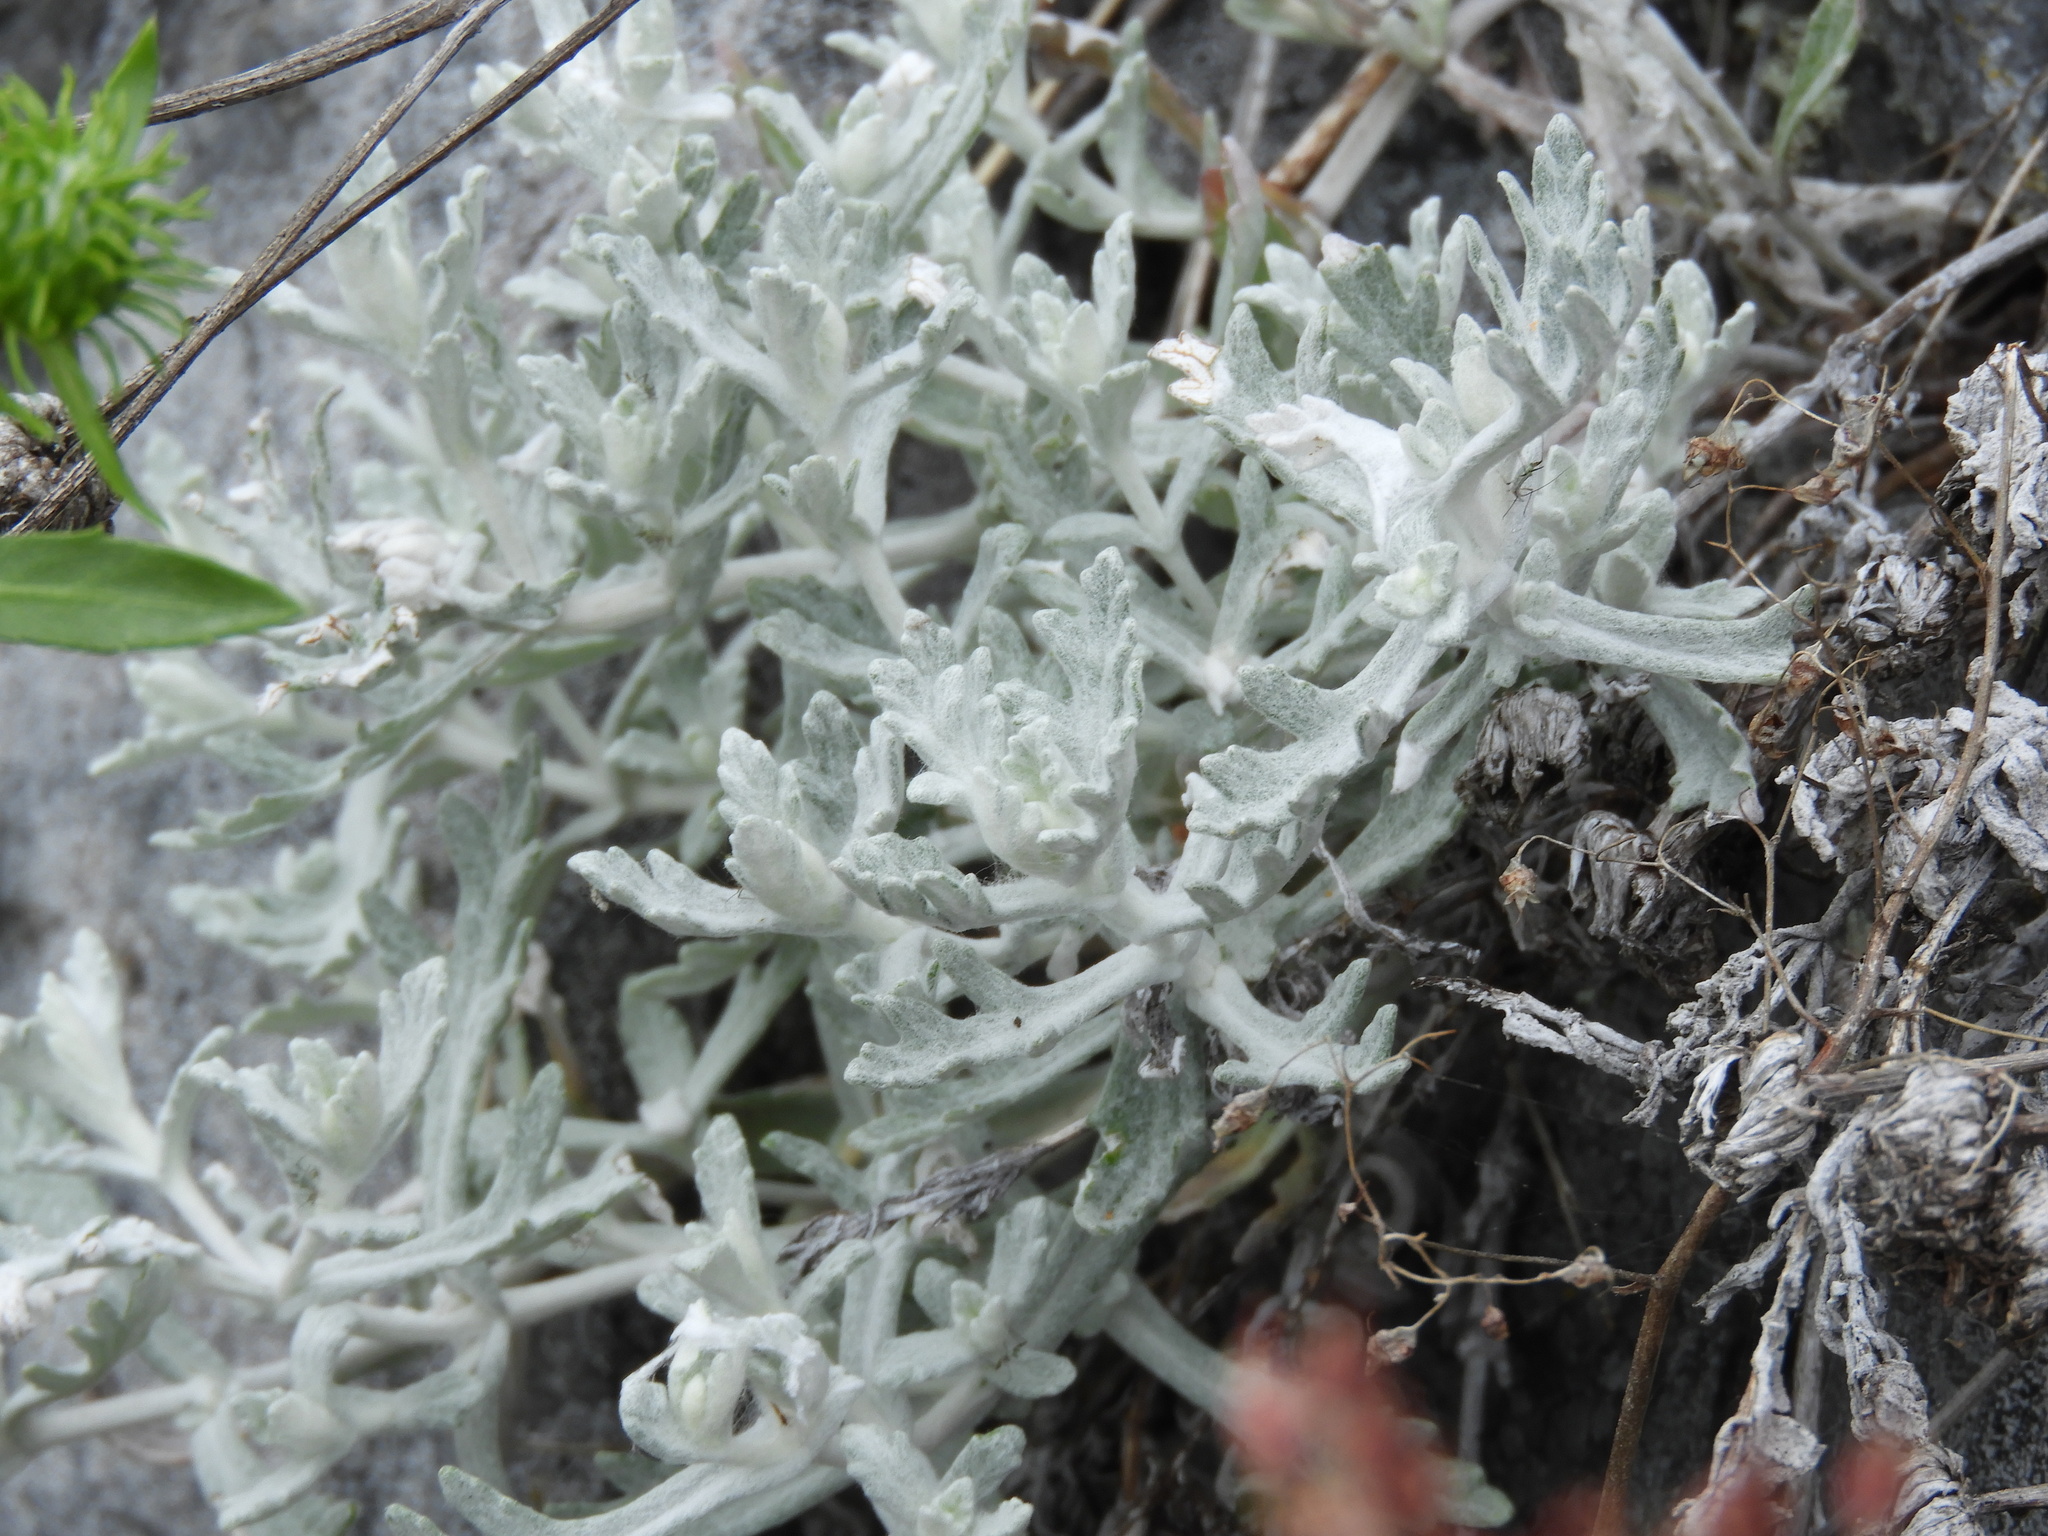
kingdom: Plantae
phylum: Tracheophyta
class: Magnoliopsida
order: Asterales
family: Asteraceae
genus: Eriophyllum
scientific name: Eriophyllum lanatum
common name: Common woolly-sunflower
